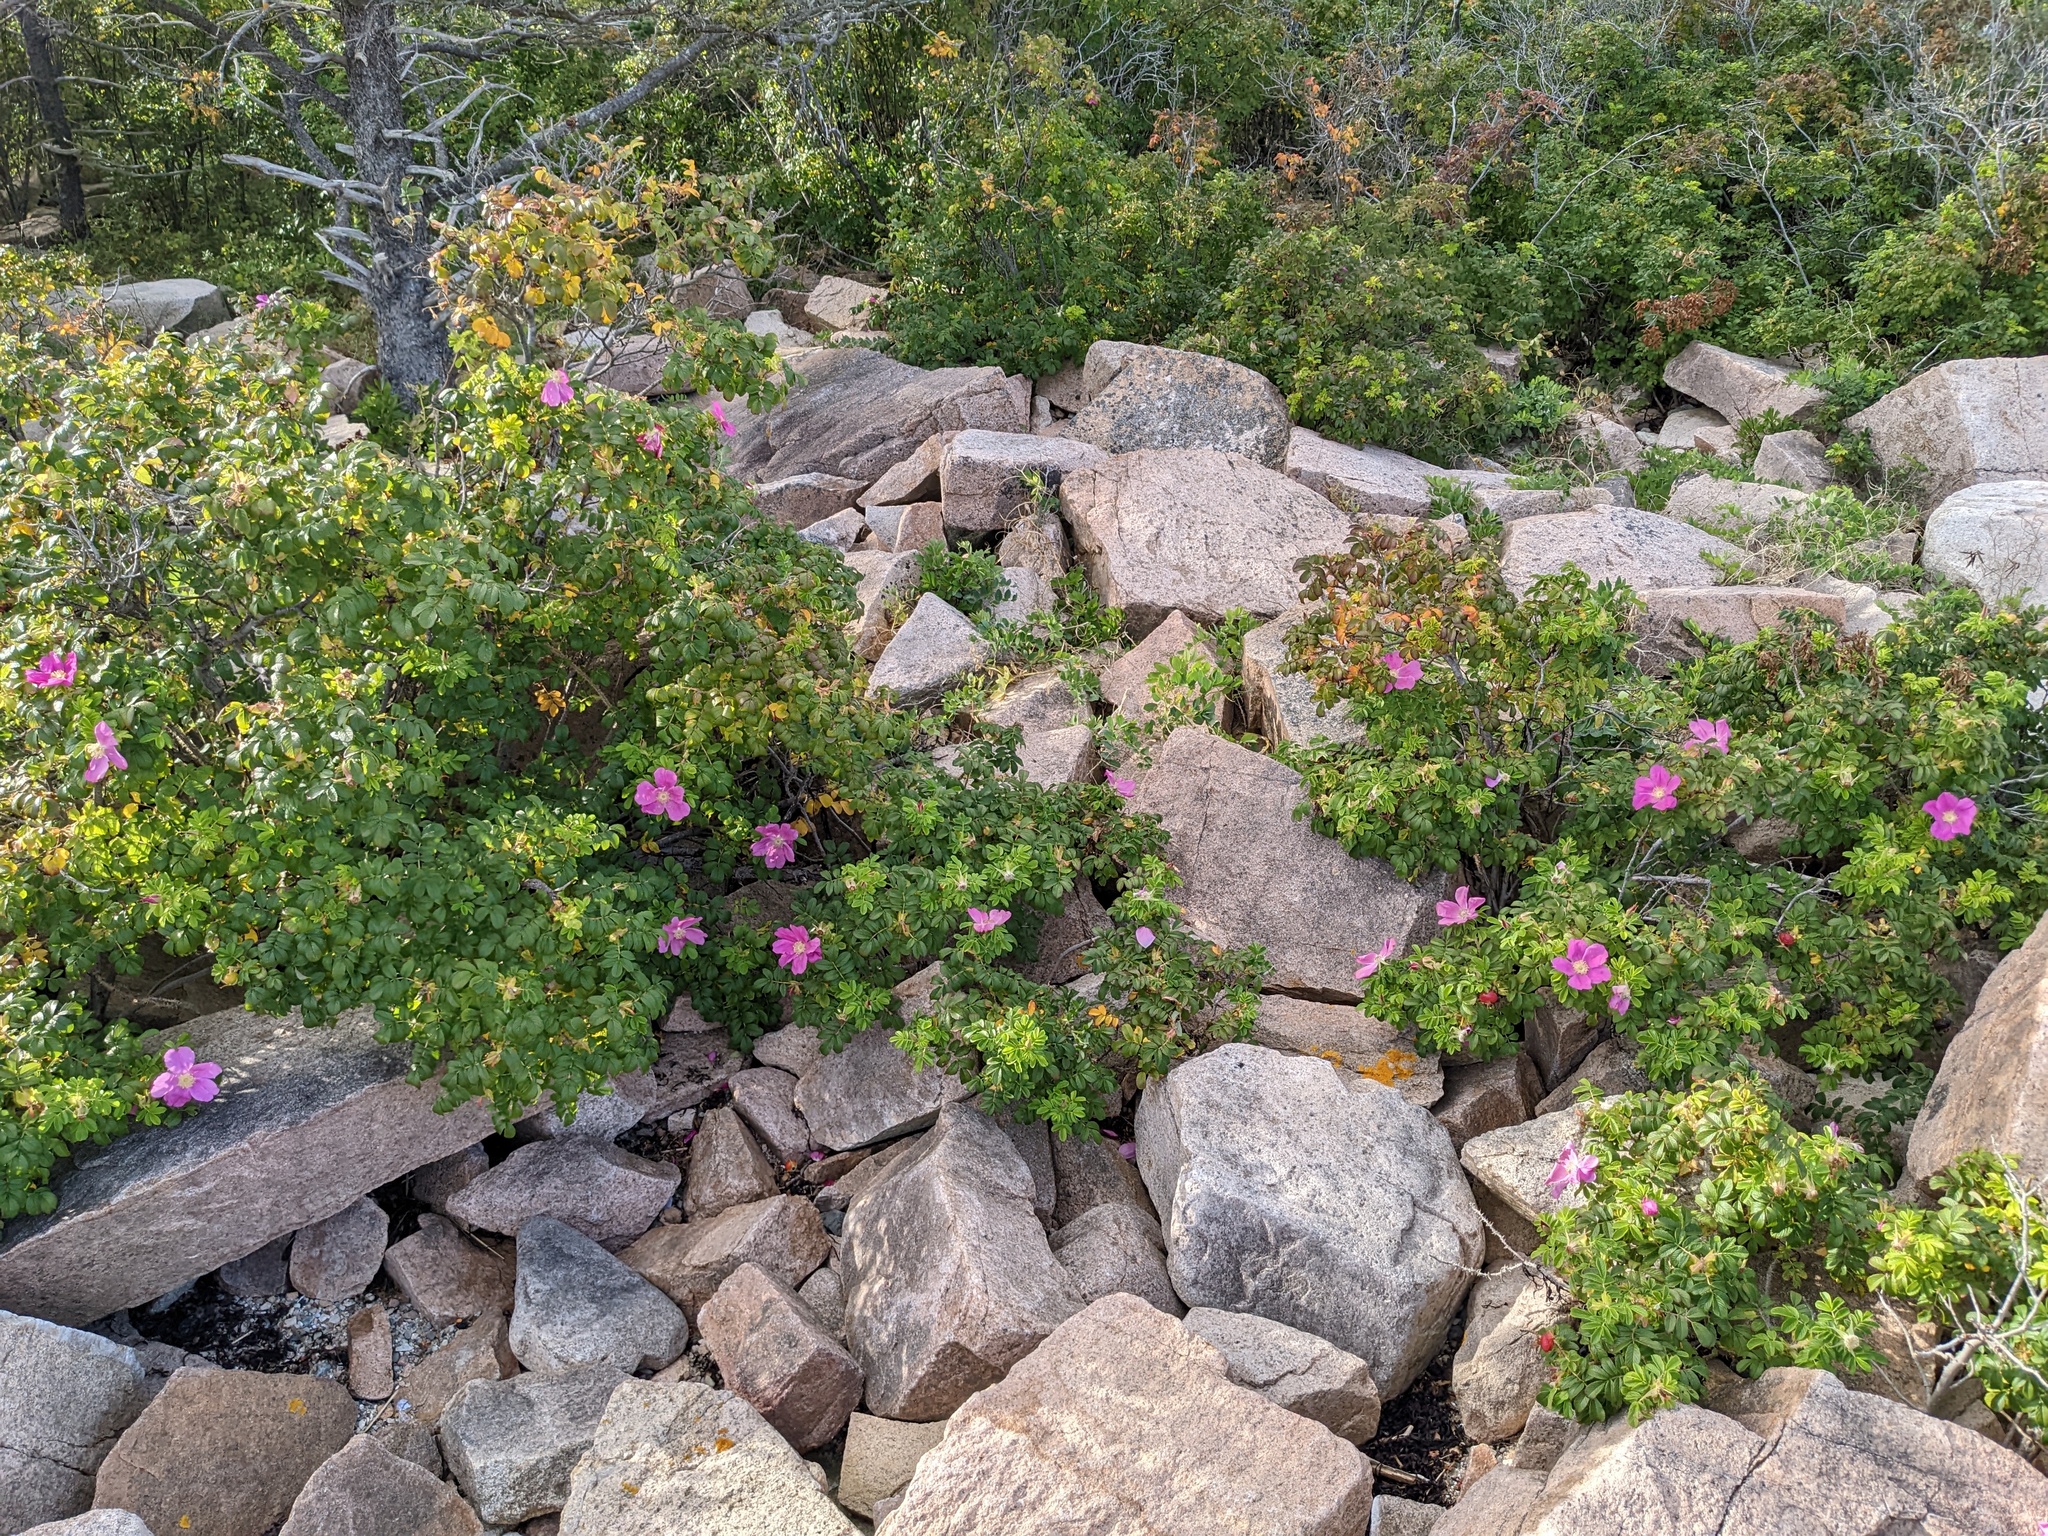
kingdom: Plantae
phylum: Tracheophyta
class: Magnoliopsida
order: Rosales
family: Rosaceae
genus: Rosa
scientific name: Rosa rugosa
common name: Japanese rose
